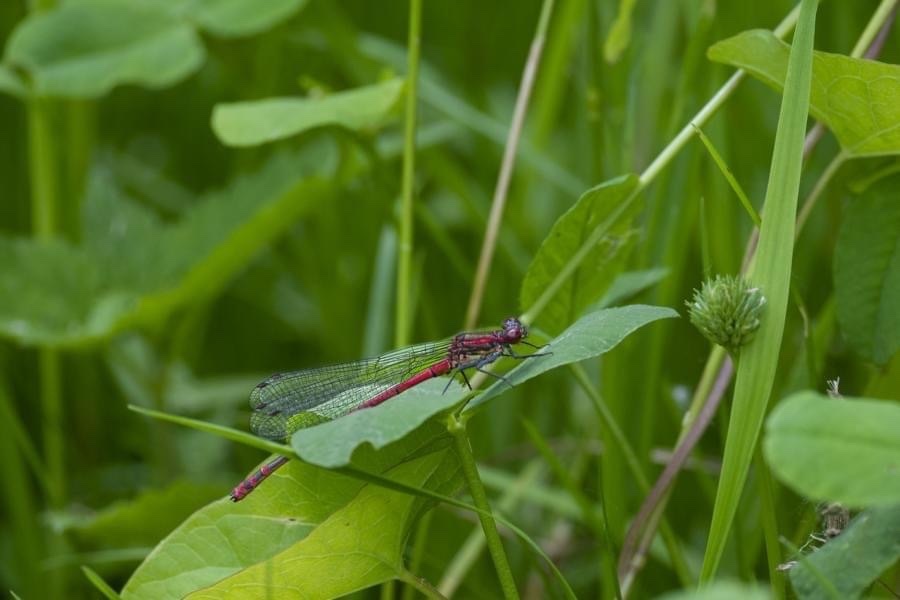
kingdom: Animalia
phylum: Arthropoda
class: Insecta
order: Odonata
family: Coenagrionidae
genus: Pyrrhosoma
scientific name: Pyrrhosoma nymphula
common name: Large red damsel
